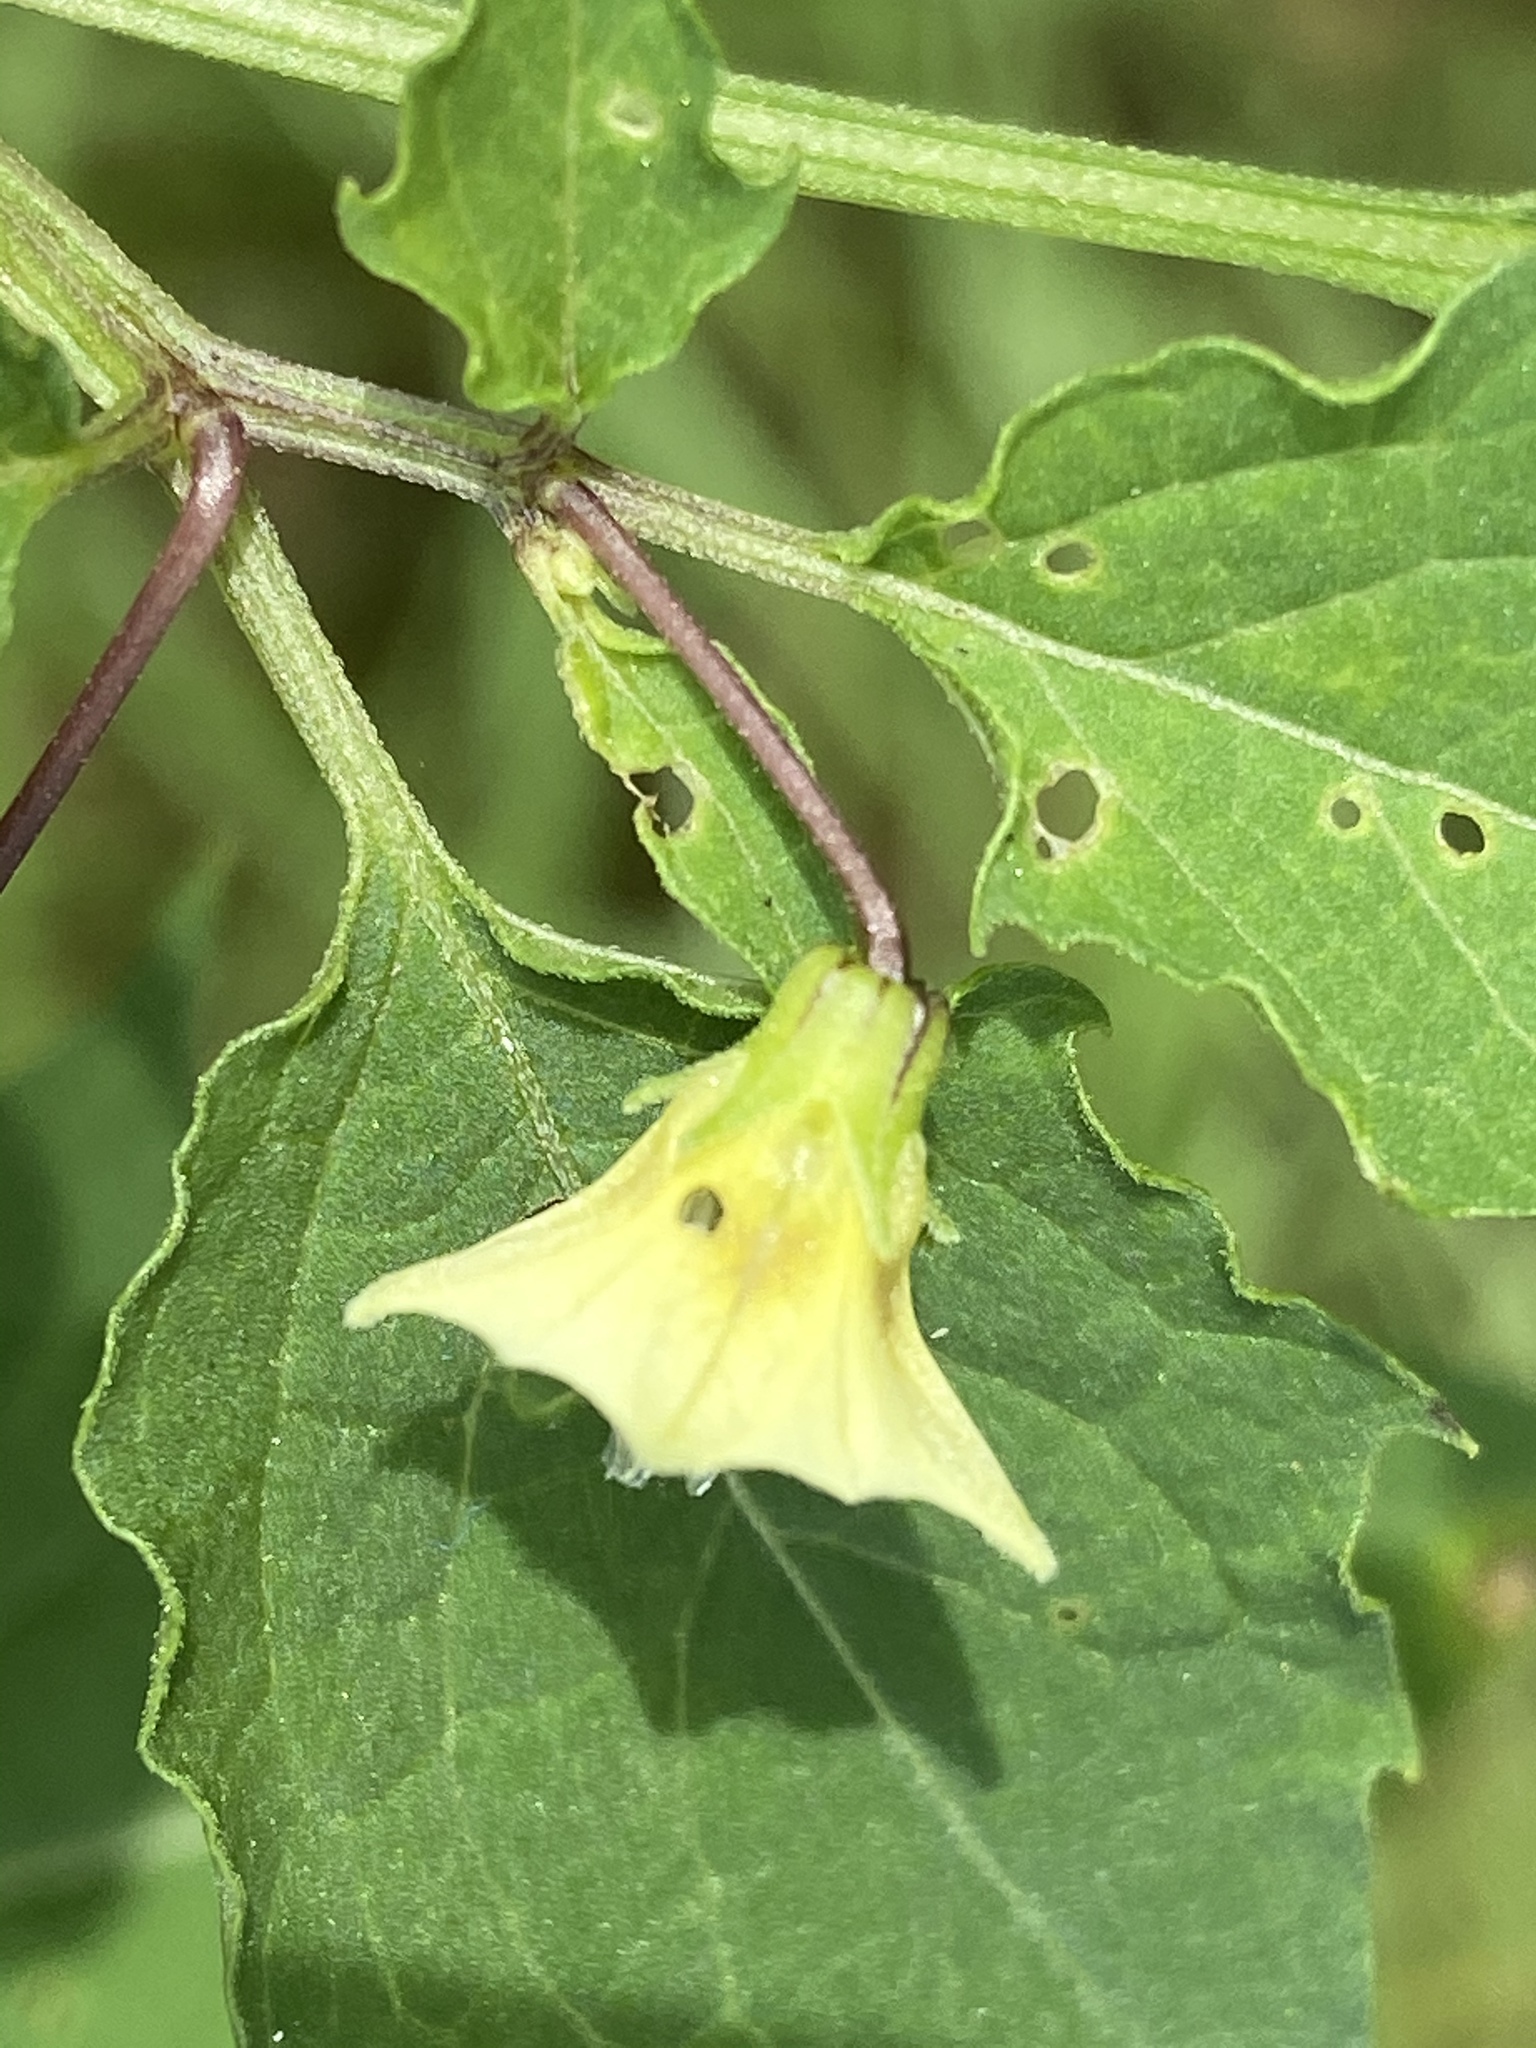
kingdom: Plantae
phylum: Tracheophyta
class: Magnoliopsida
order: Solanales
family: Solanaceae
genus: Physalis
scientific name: Physalis angulata
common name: Angular winter-cherry
